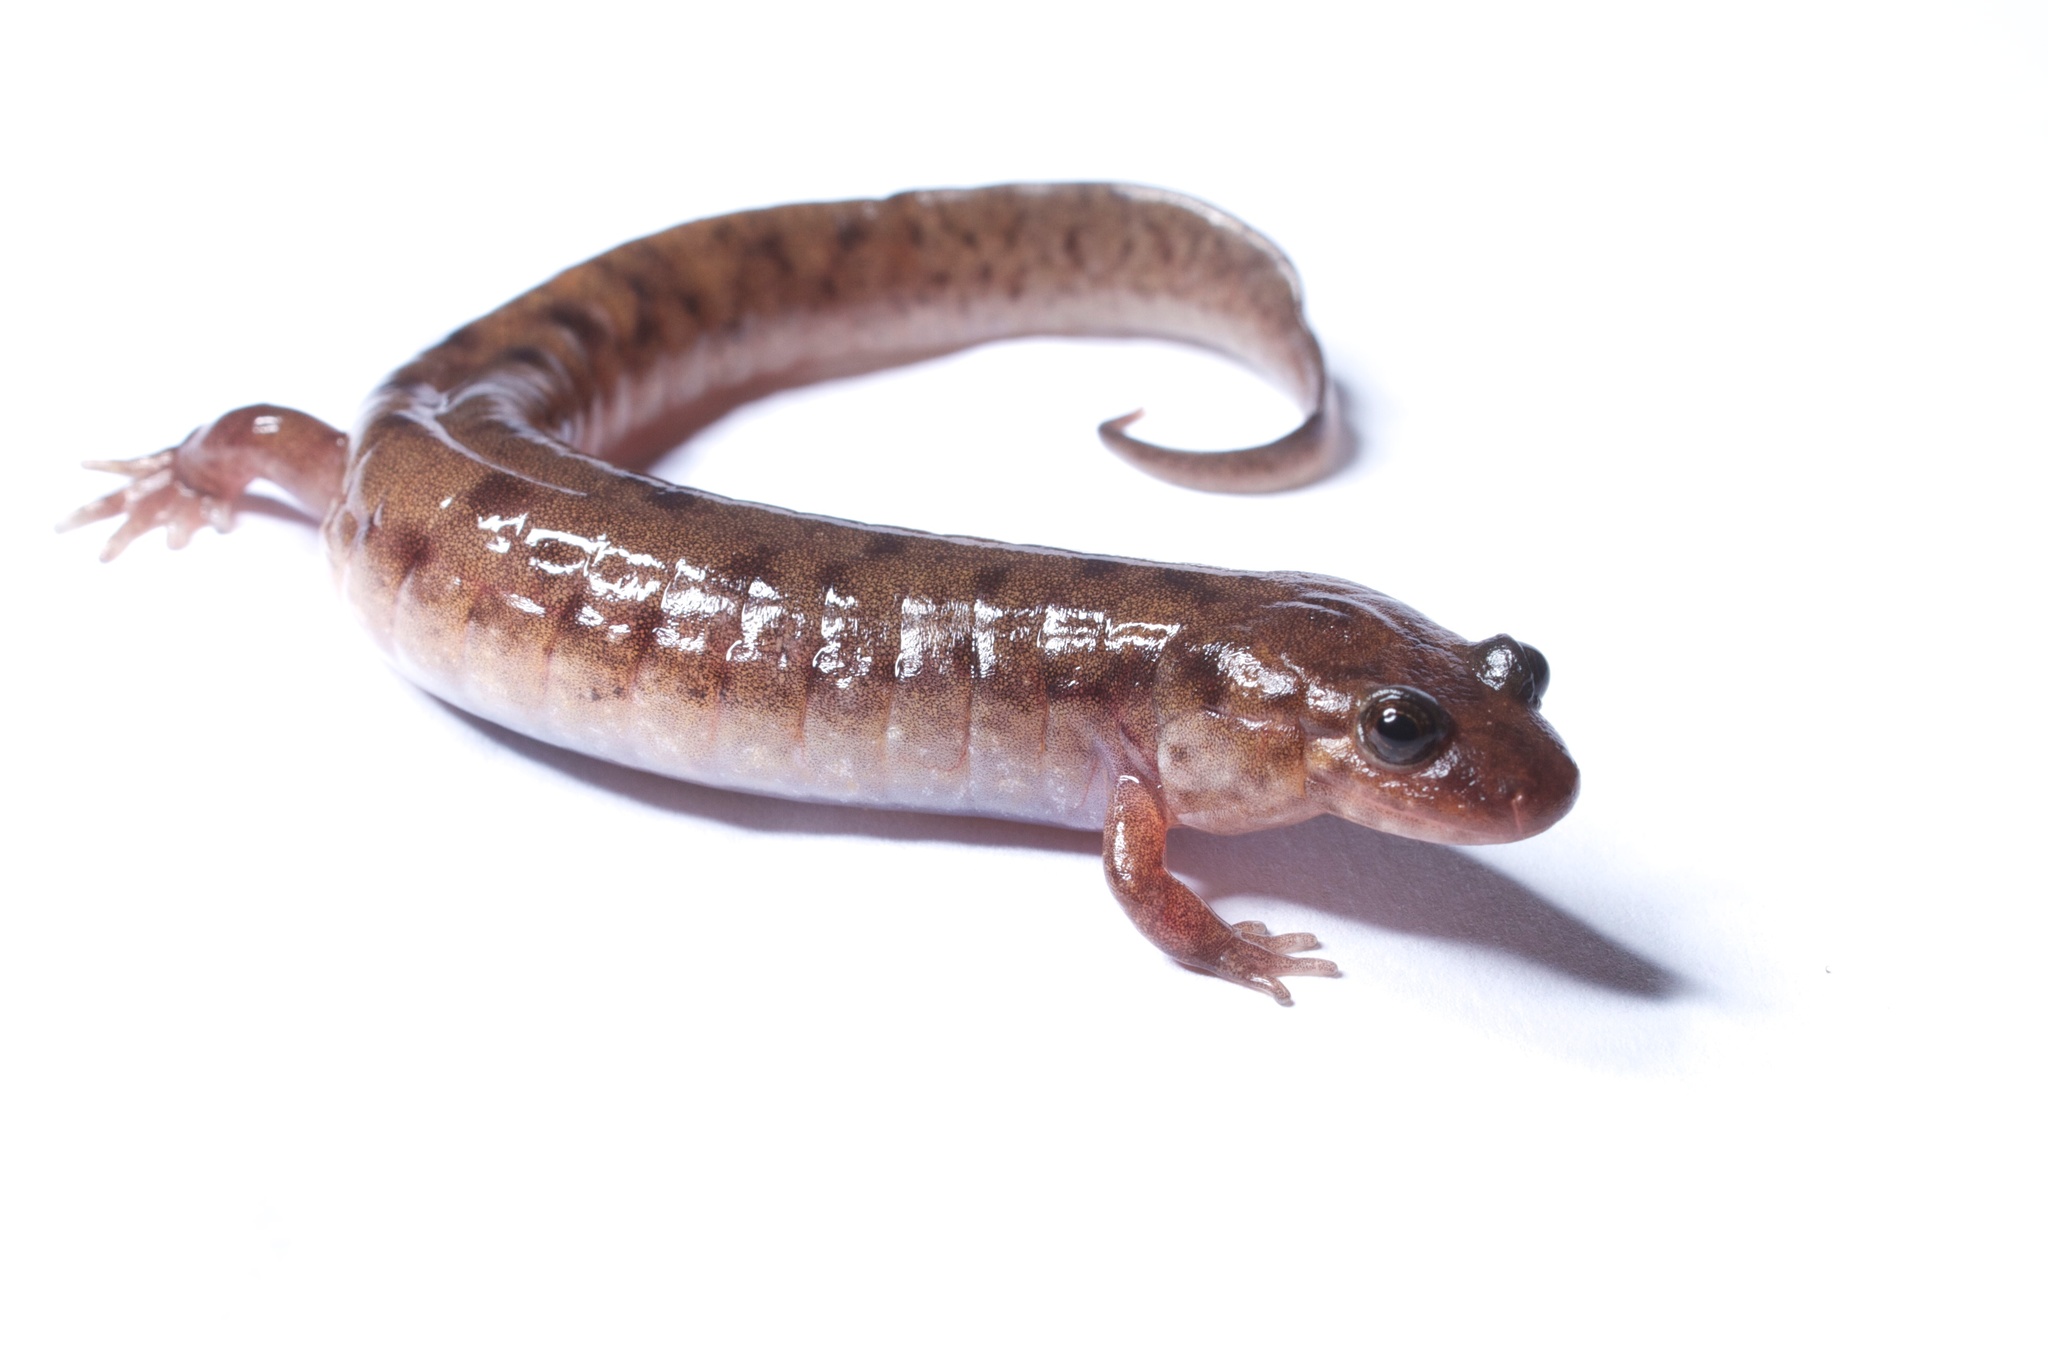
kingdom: Animalia
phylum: Chordata
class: Amphibia
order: Caudata
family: Plethodontidae
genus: Desmognathus
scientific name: Desmognathus monticola
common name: Seal salamander
